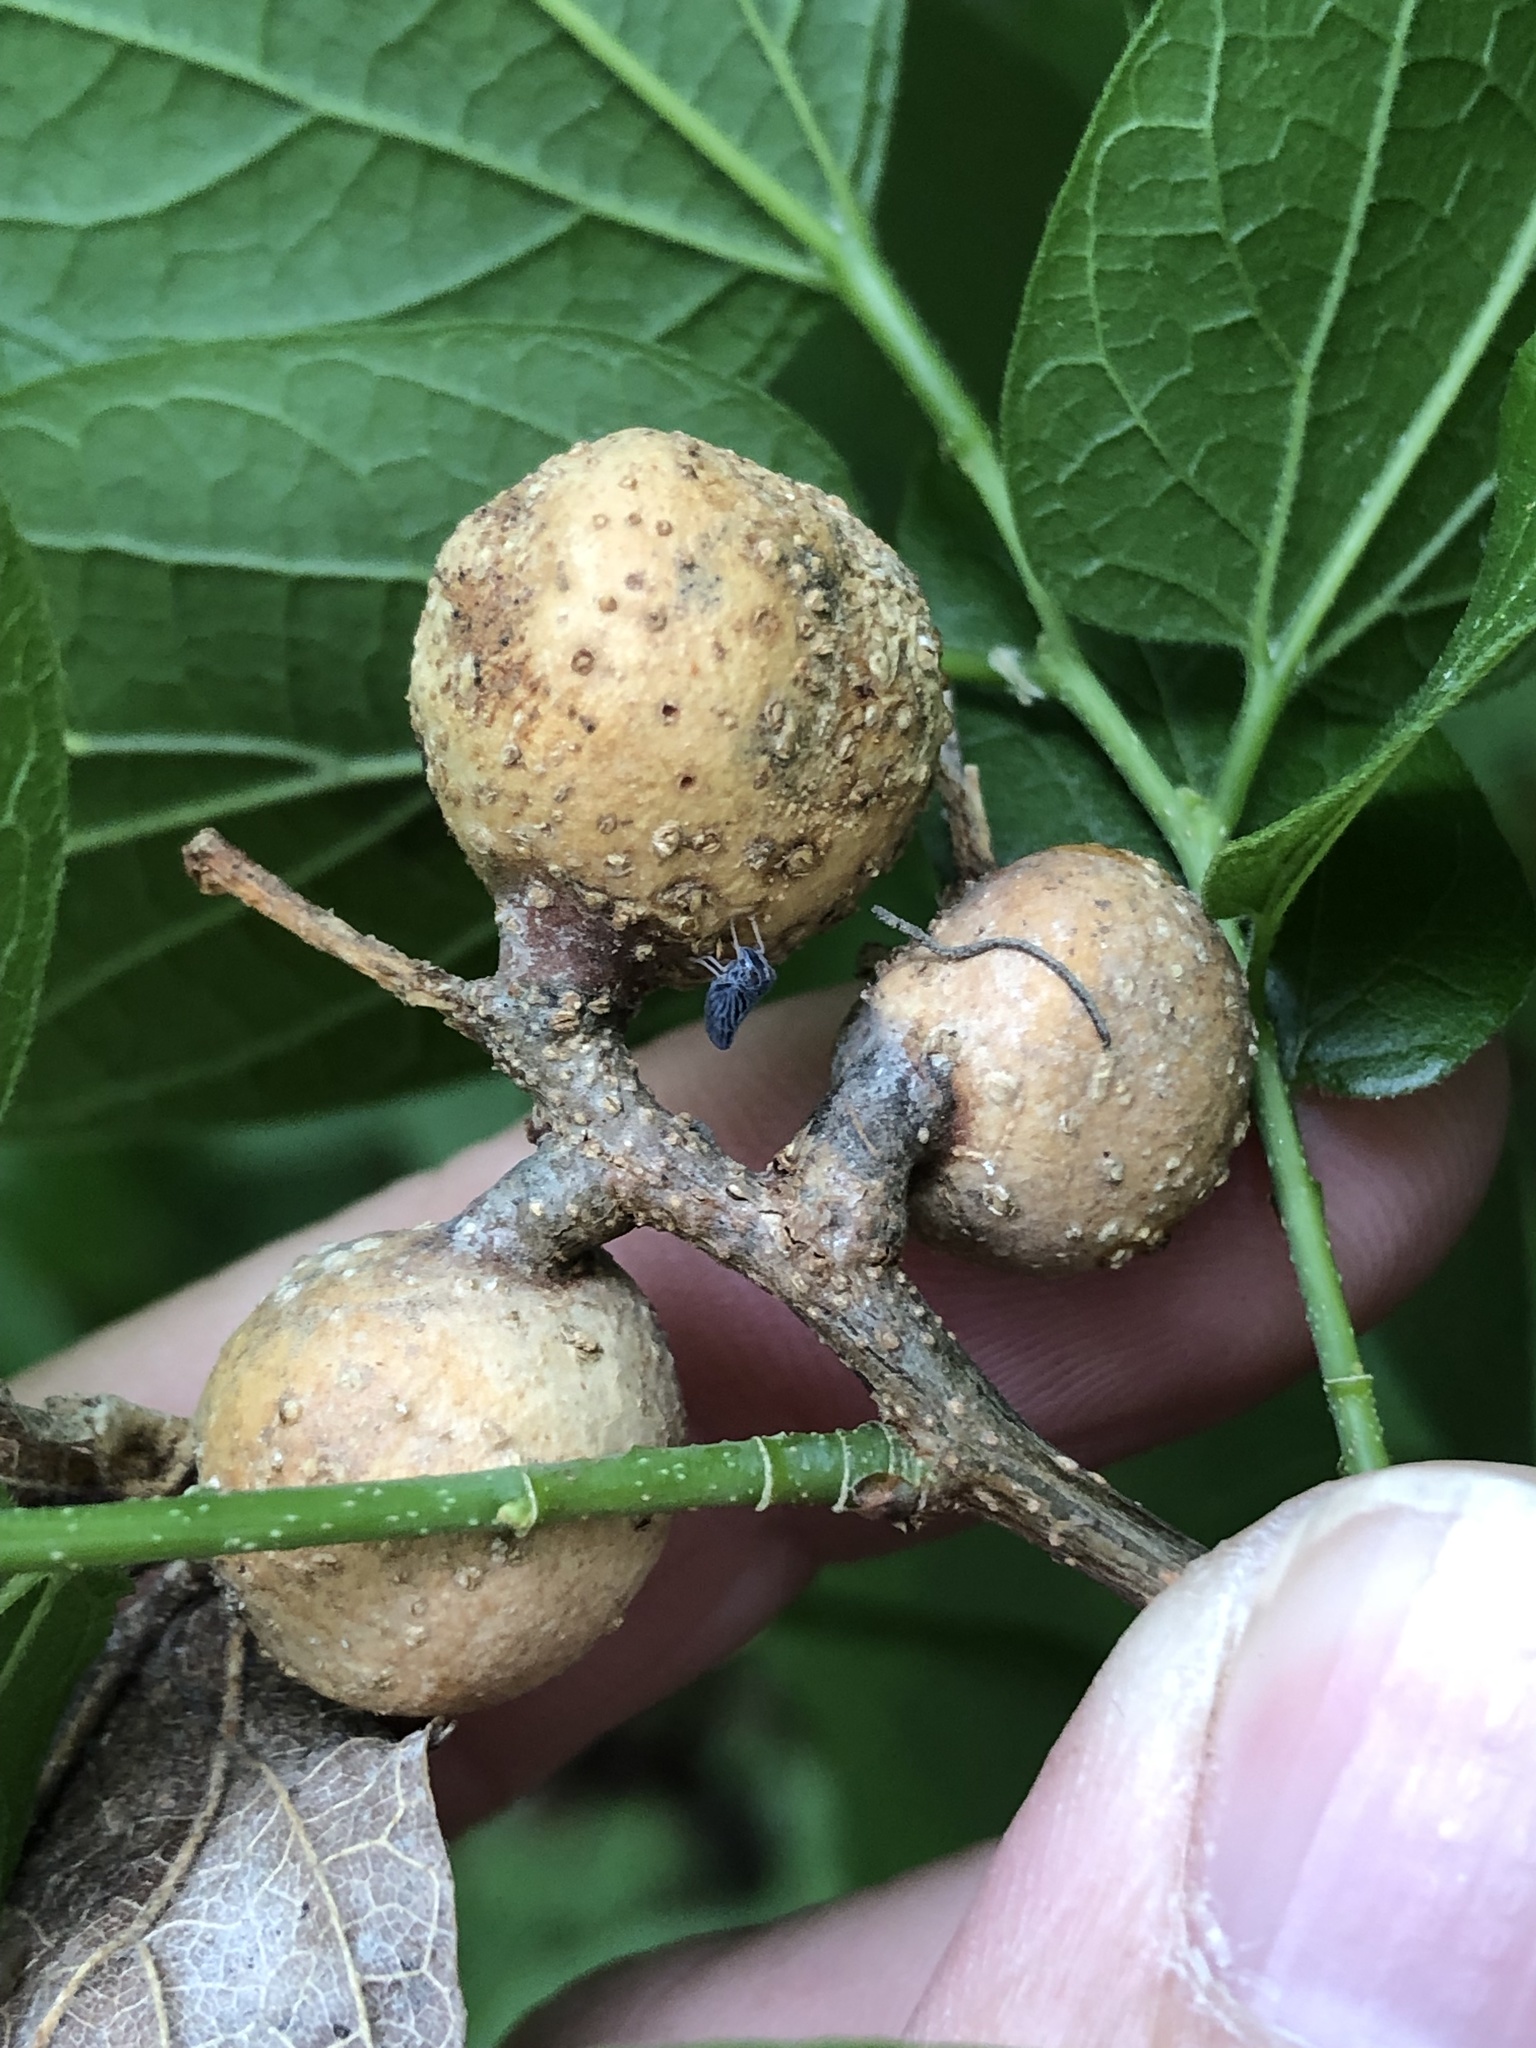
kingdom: Animalia
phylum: Arthropoda
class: Insecta
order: Hemiptera
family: Aphalaridae
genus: Pachypsylla
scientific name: Pachypsylla venusta
